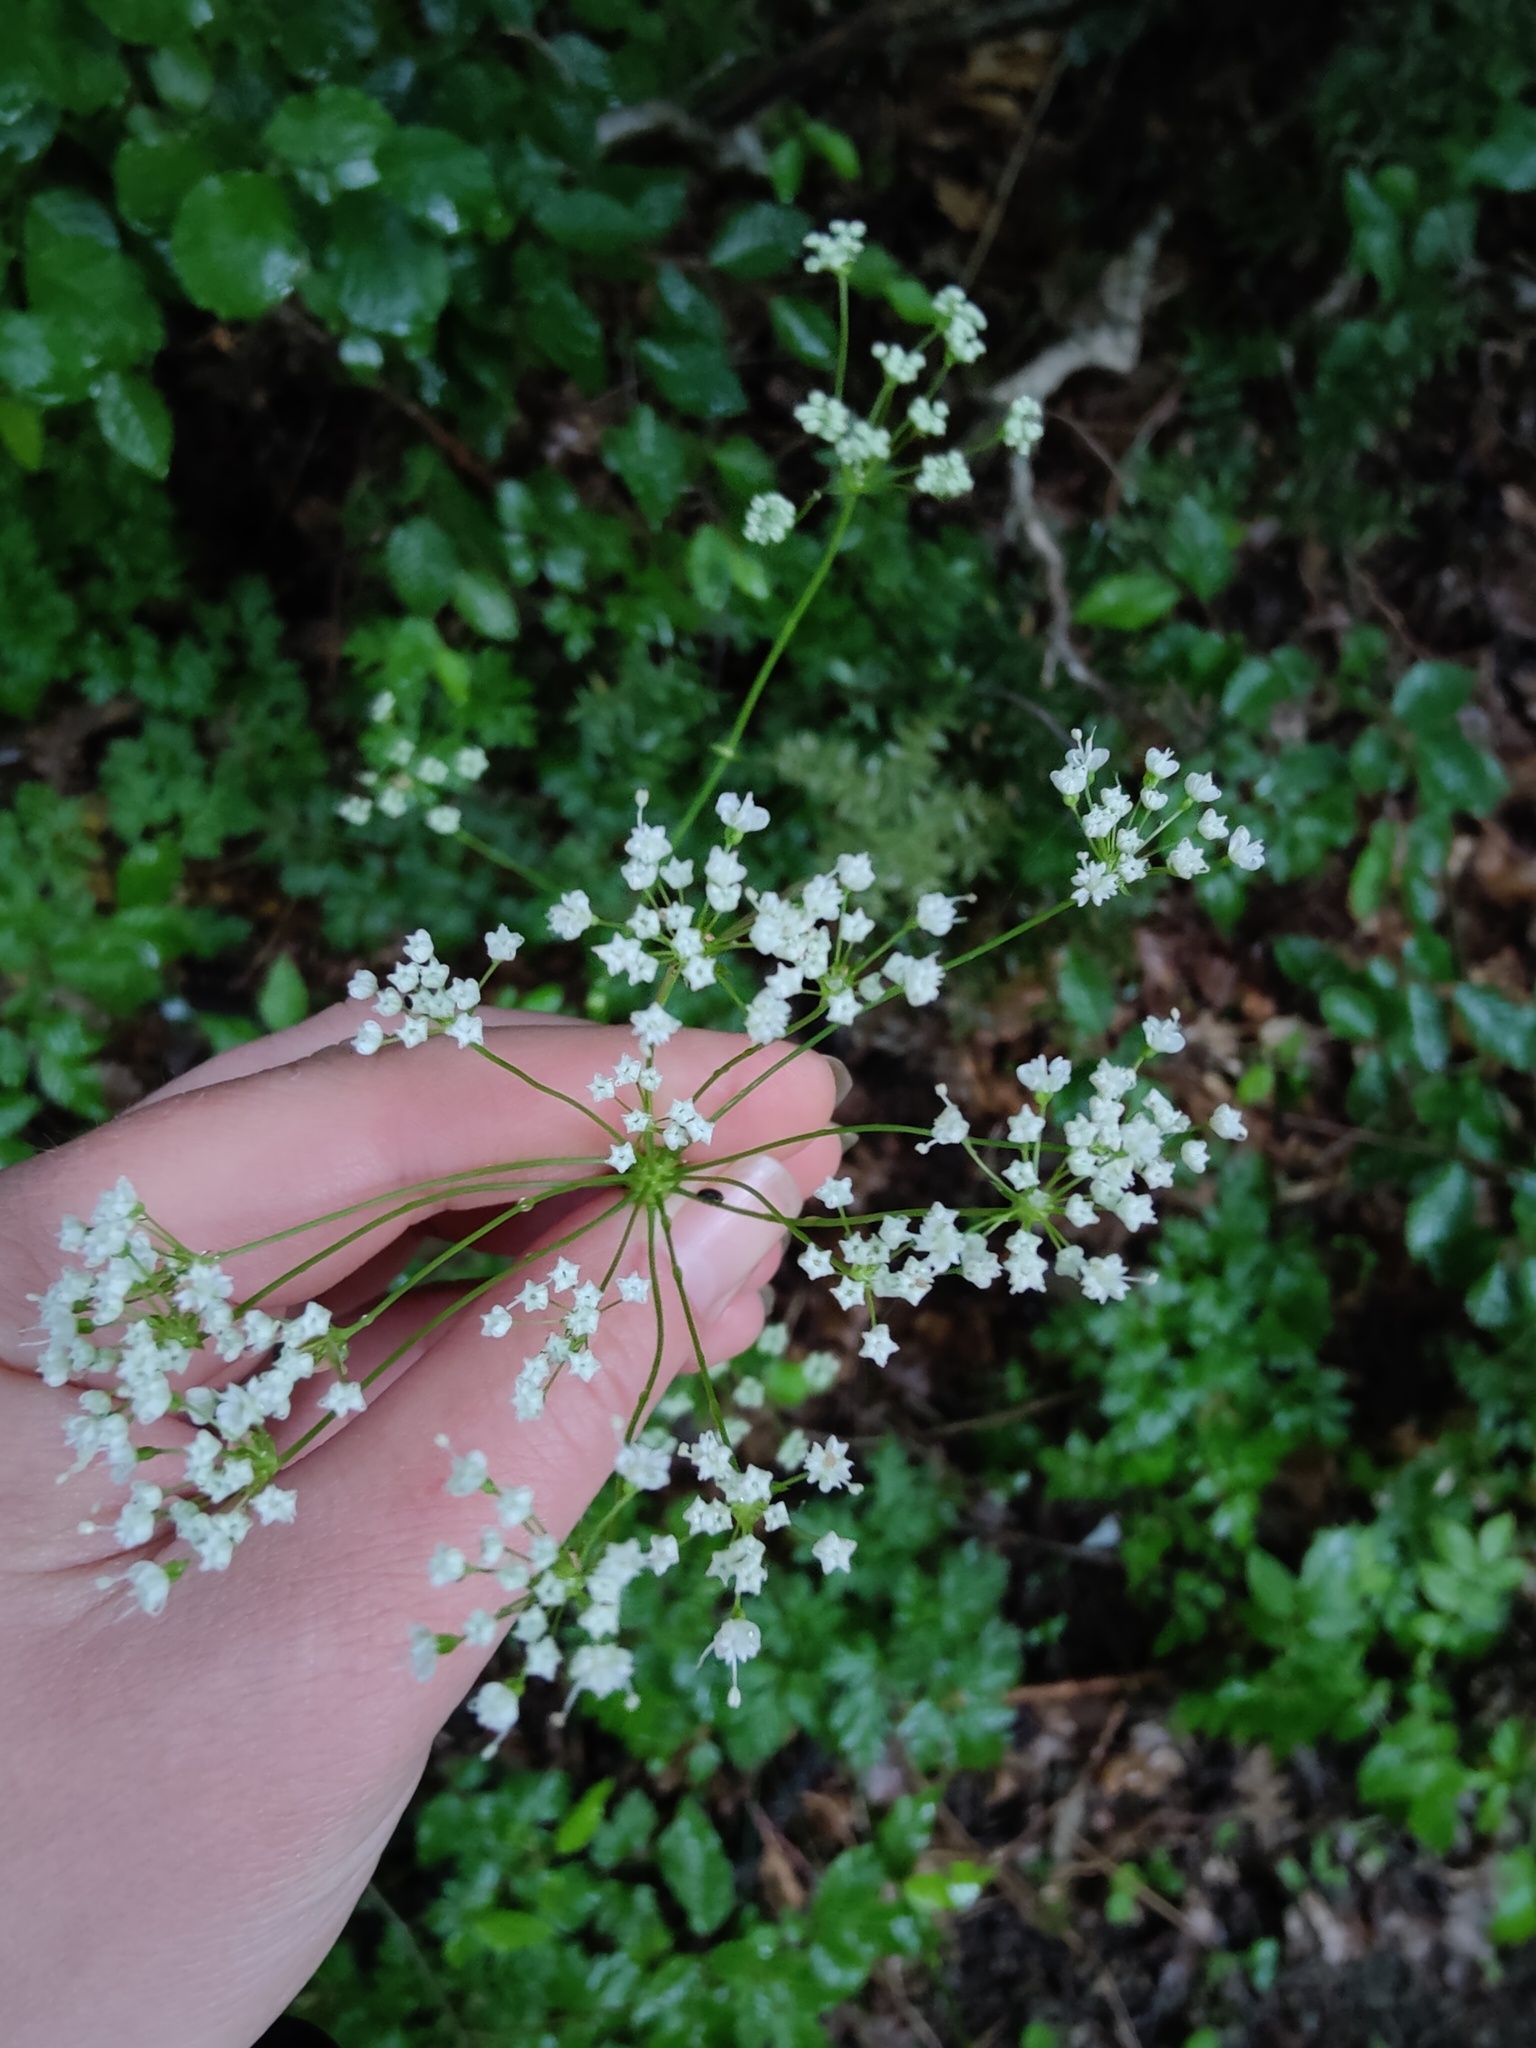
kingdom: Plantae
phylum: Tracheophyta
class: Magnoliopsida
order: Apiales
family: Apiaceae
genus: Physospermum
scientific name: Physospermum cornubiense
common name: Bladderseed
